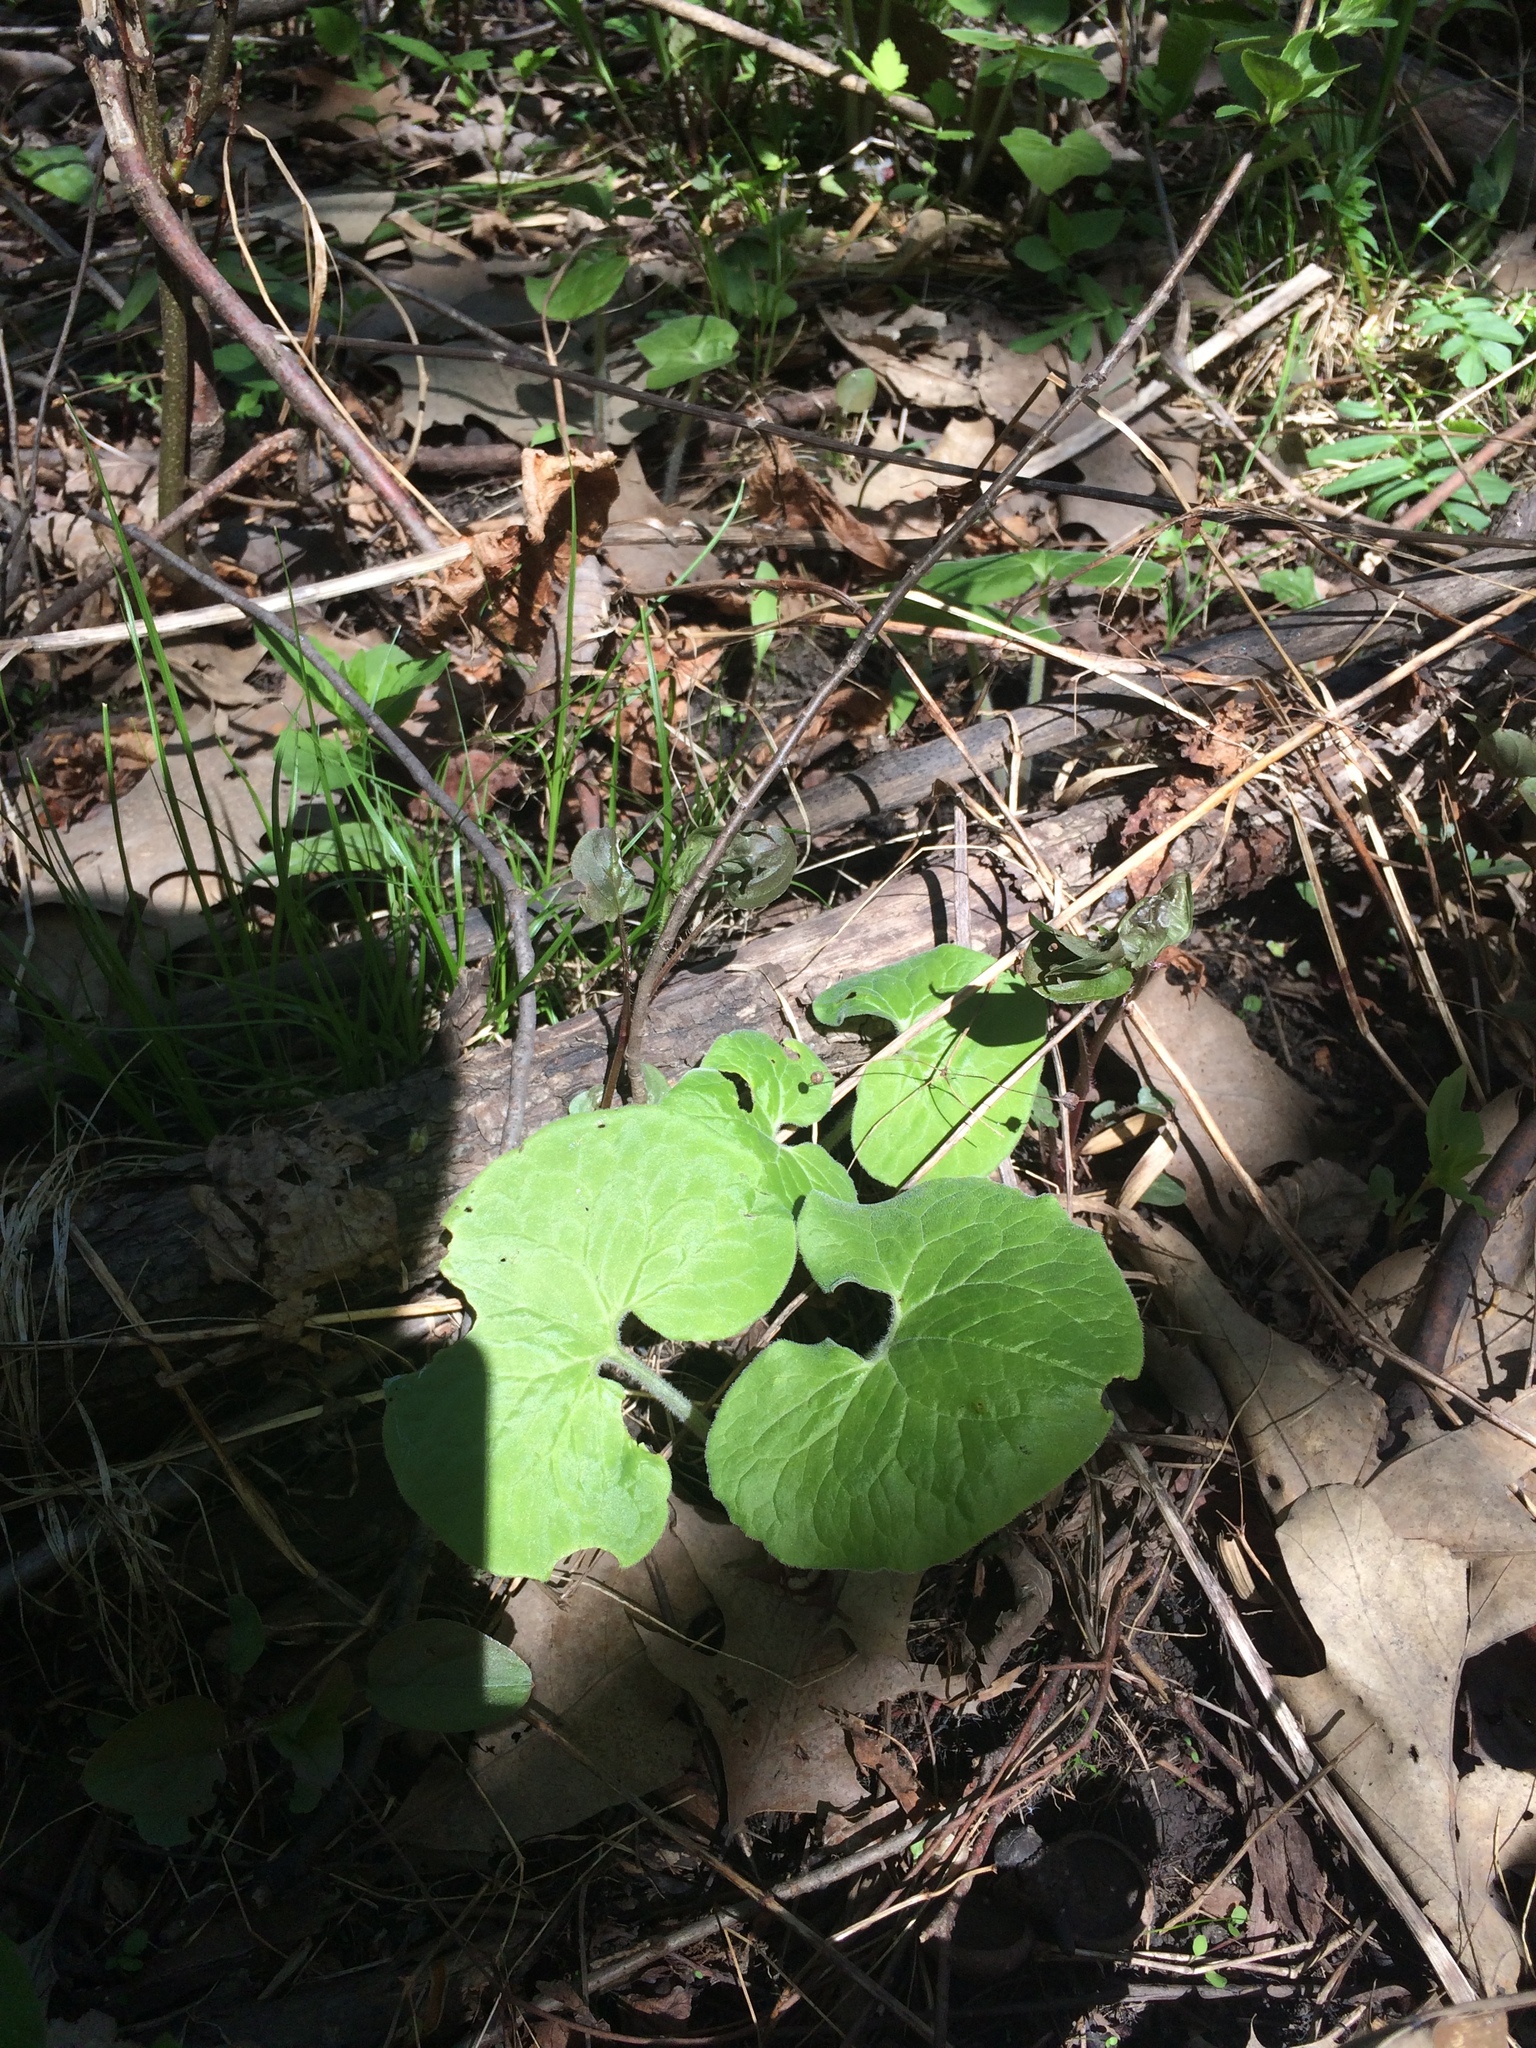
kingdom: Plantae
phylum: Tracheophyta
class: Magnoliopsida
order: Piperales
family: Aristolochiaceae
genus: Asarum
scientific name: Asarum canadense
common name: Wild ginger
